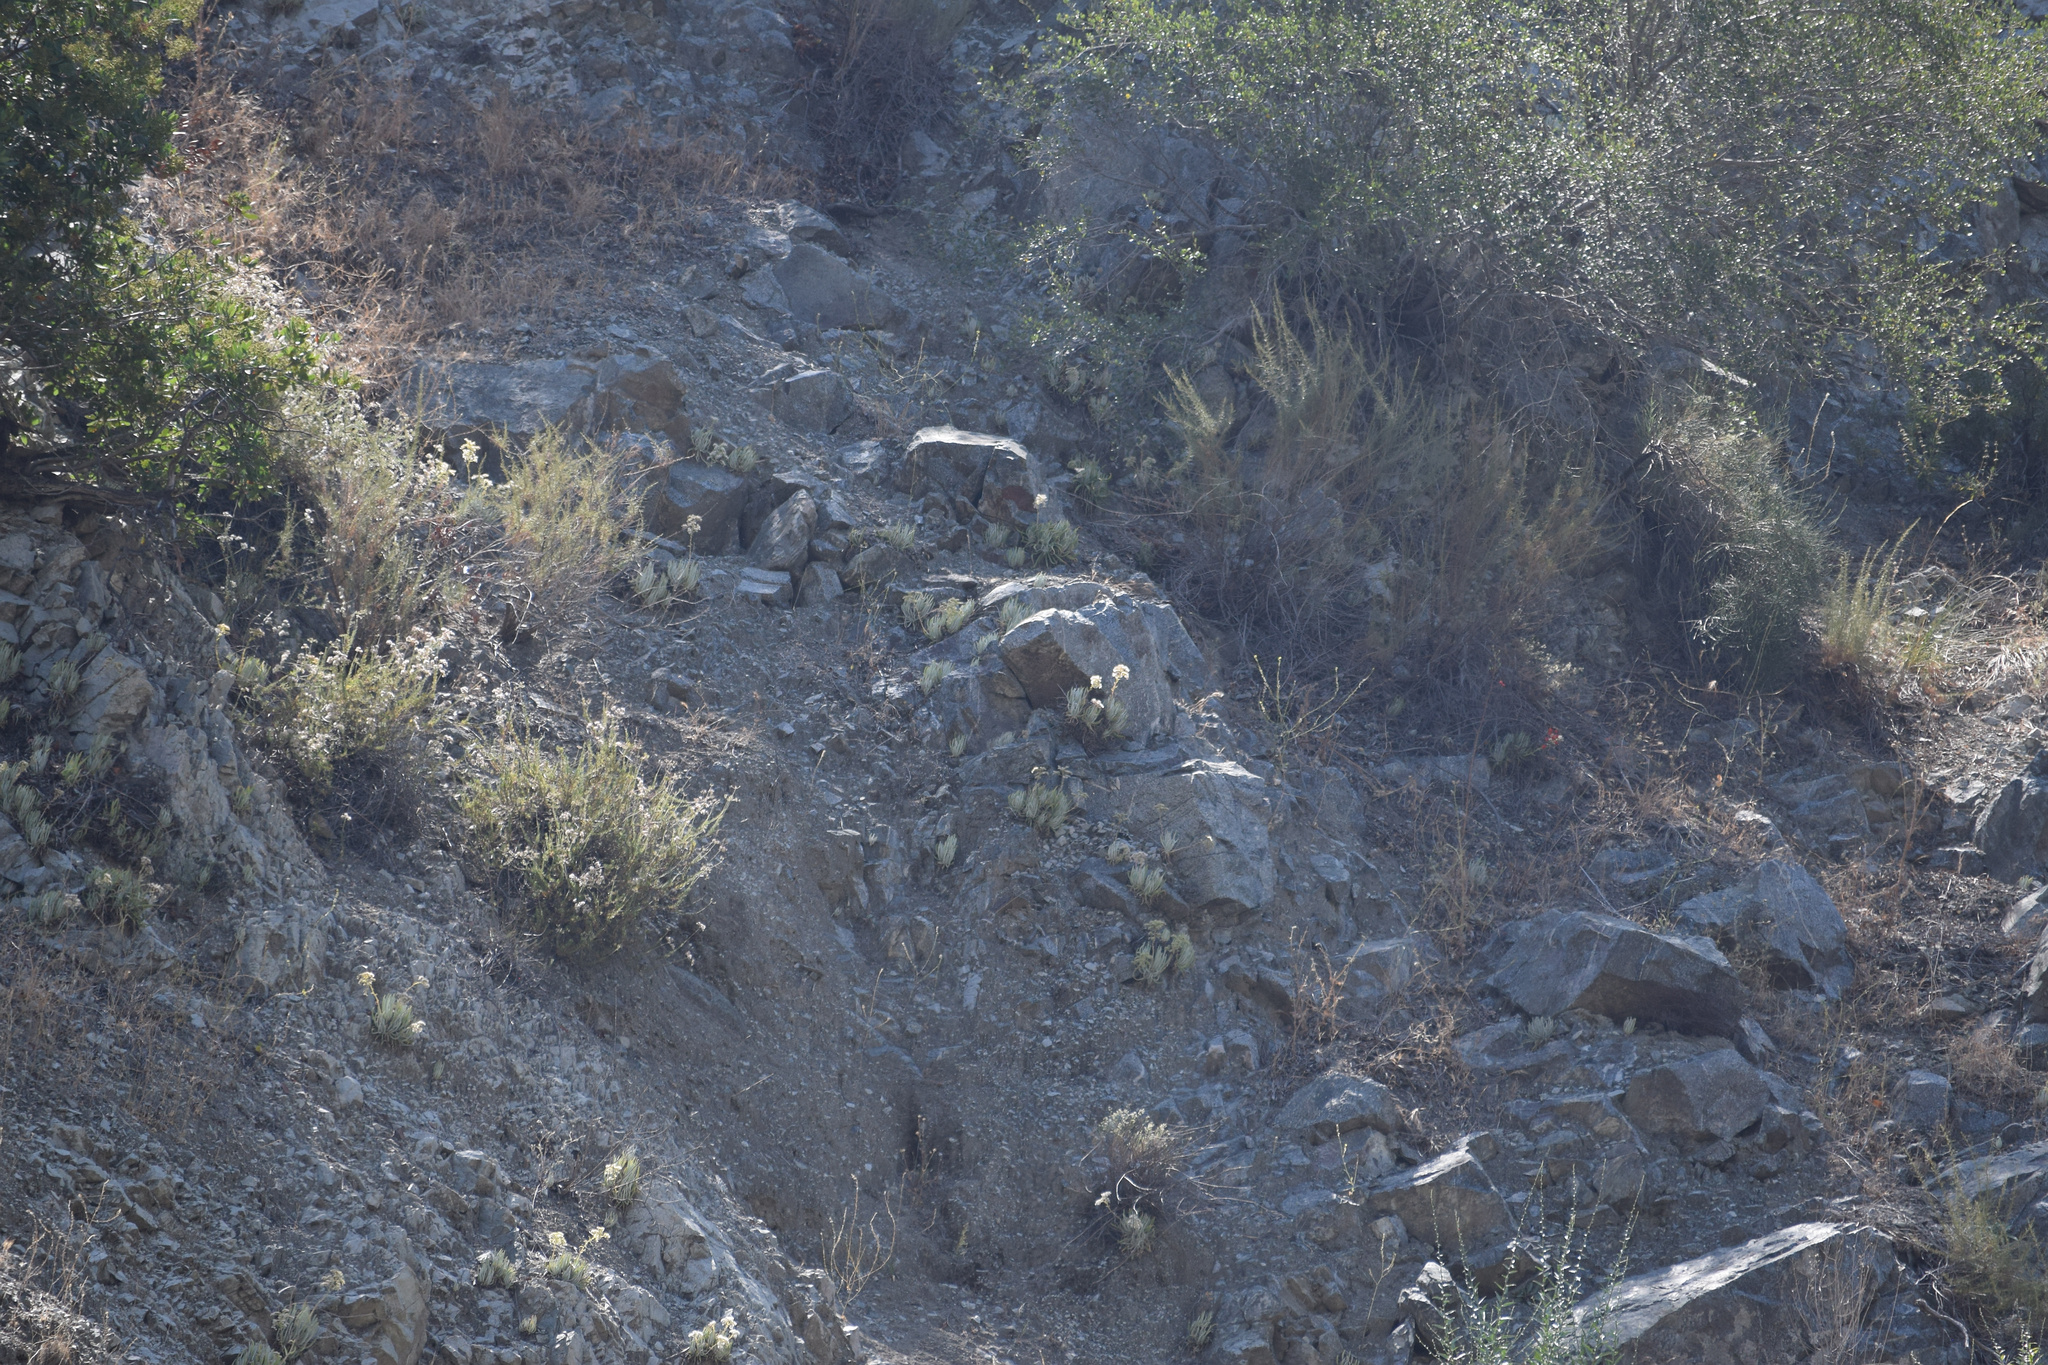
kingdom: Plantae
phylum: Tracheophyta
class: Magnoliopsida
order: Saxifragales
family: Crassulaceae
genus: Dudleya
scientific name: Dudleya densiflora
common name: San gabriel mountains dudleya
